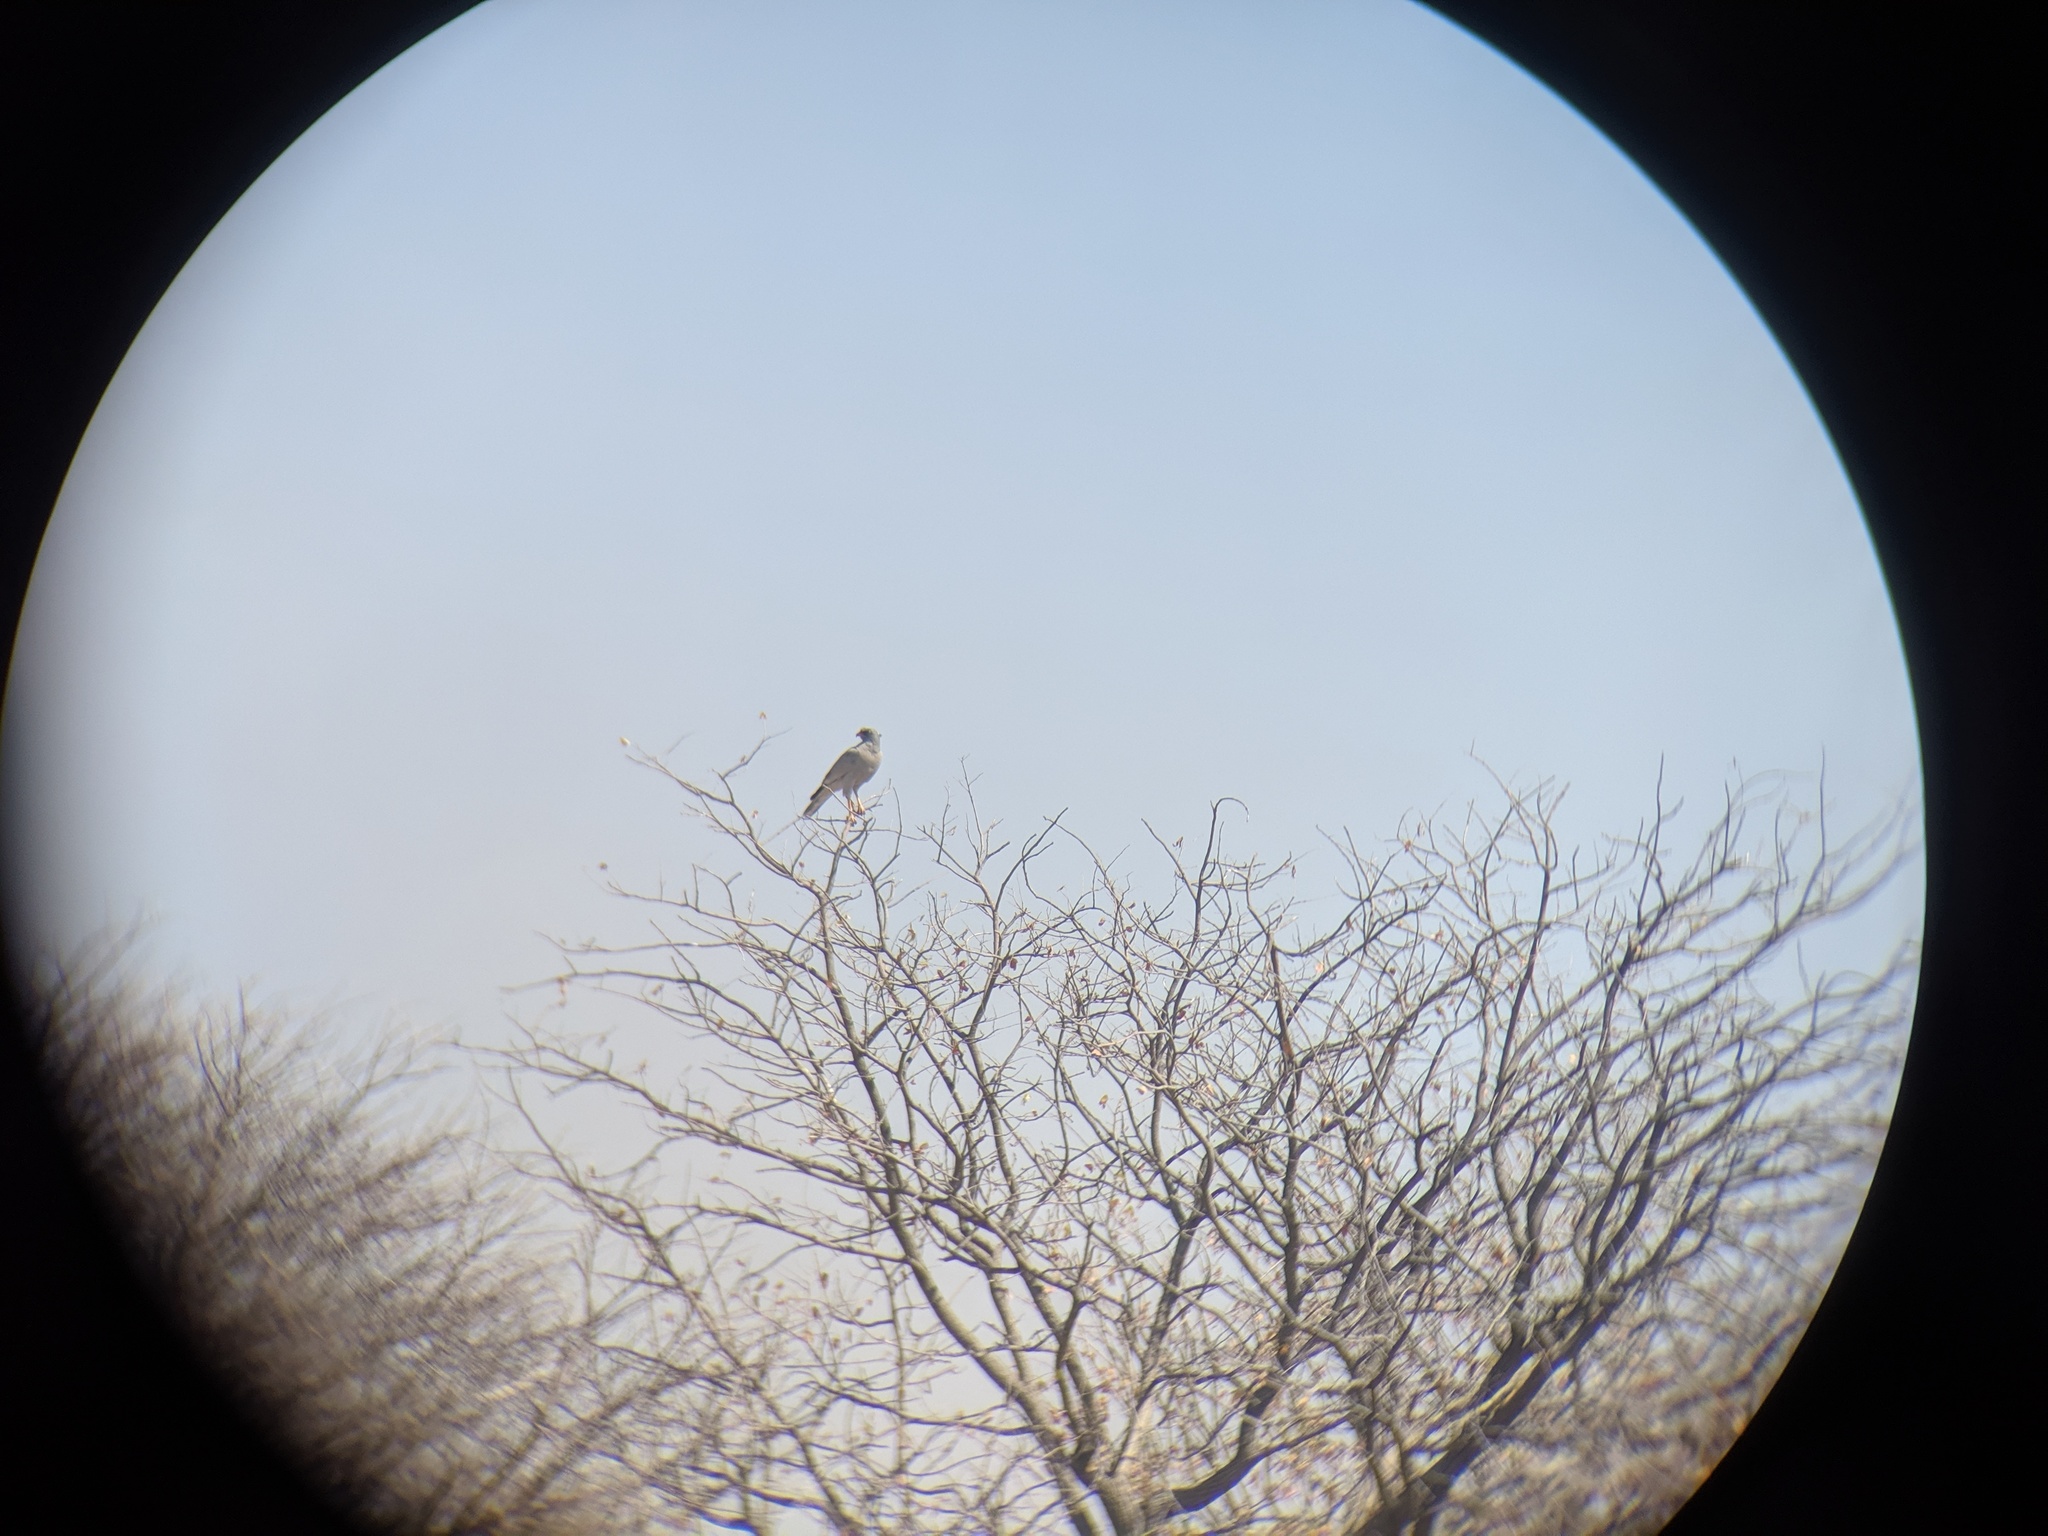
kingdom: Animalia
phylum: Chordata
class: Aves
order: Accipitriformes
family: Accipitridae
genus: Melierax
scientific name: Melierax canorus
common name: Pale chanting-goshawk
